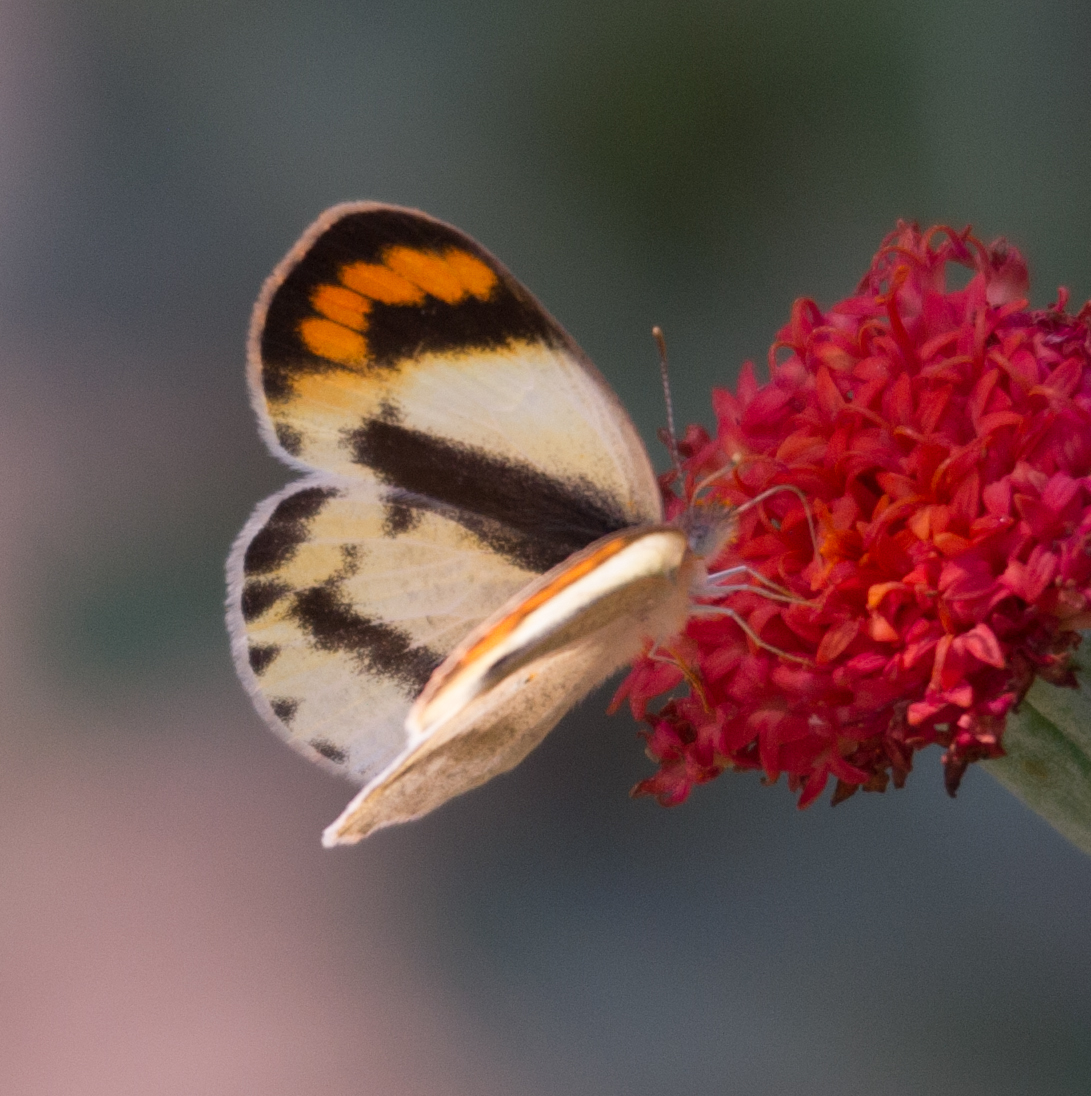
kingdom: Animalia
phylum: Arthropoda
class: Insecta
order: Lepidoptera
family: Pieridae
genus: Colotis
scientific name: Colotis euippe
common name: Round-winged orange tip
